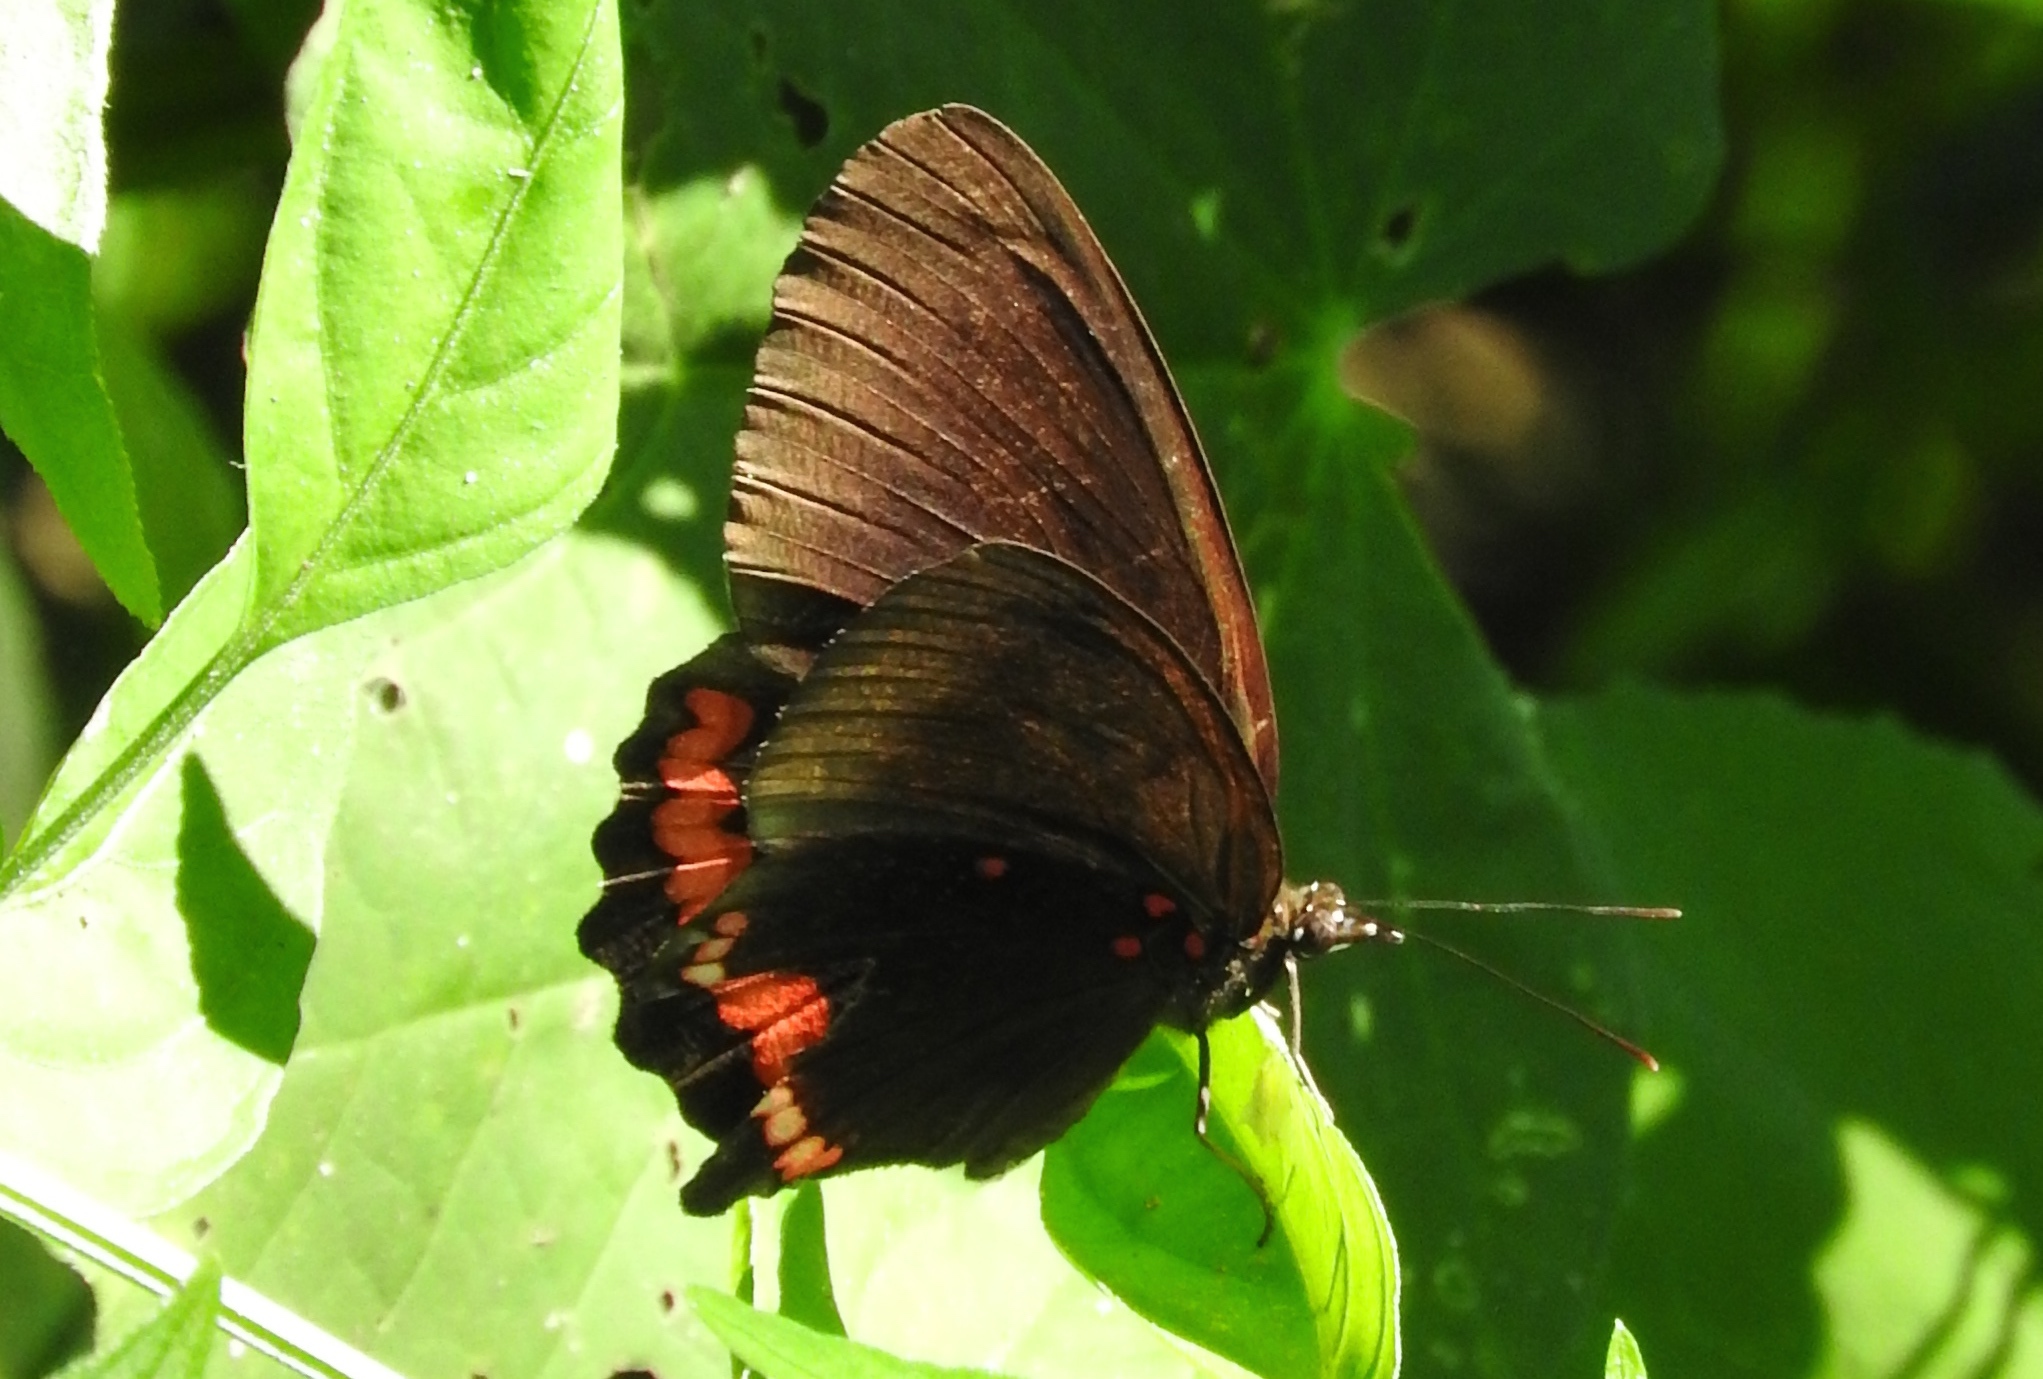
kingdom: Animalia
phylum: Arthropoda
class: Insecta
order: Lepidoptera
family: Nymphalidae
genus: Biblis
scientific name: Biblis
